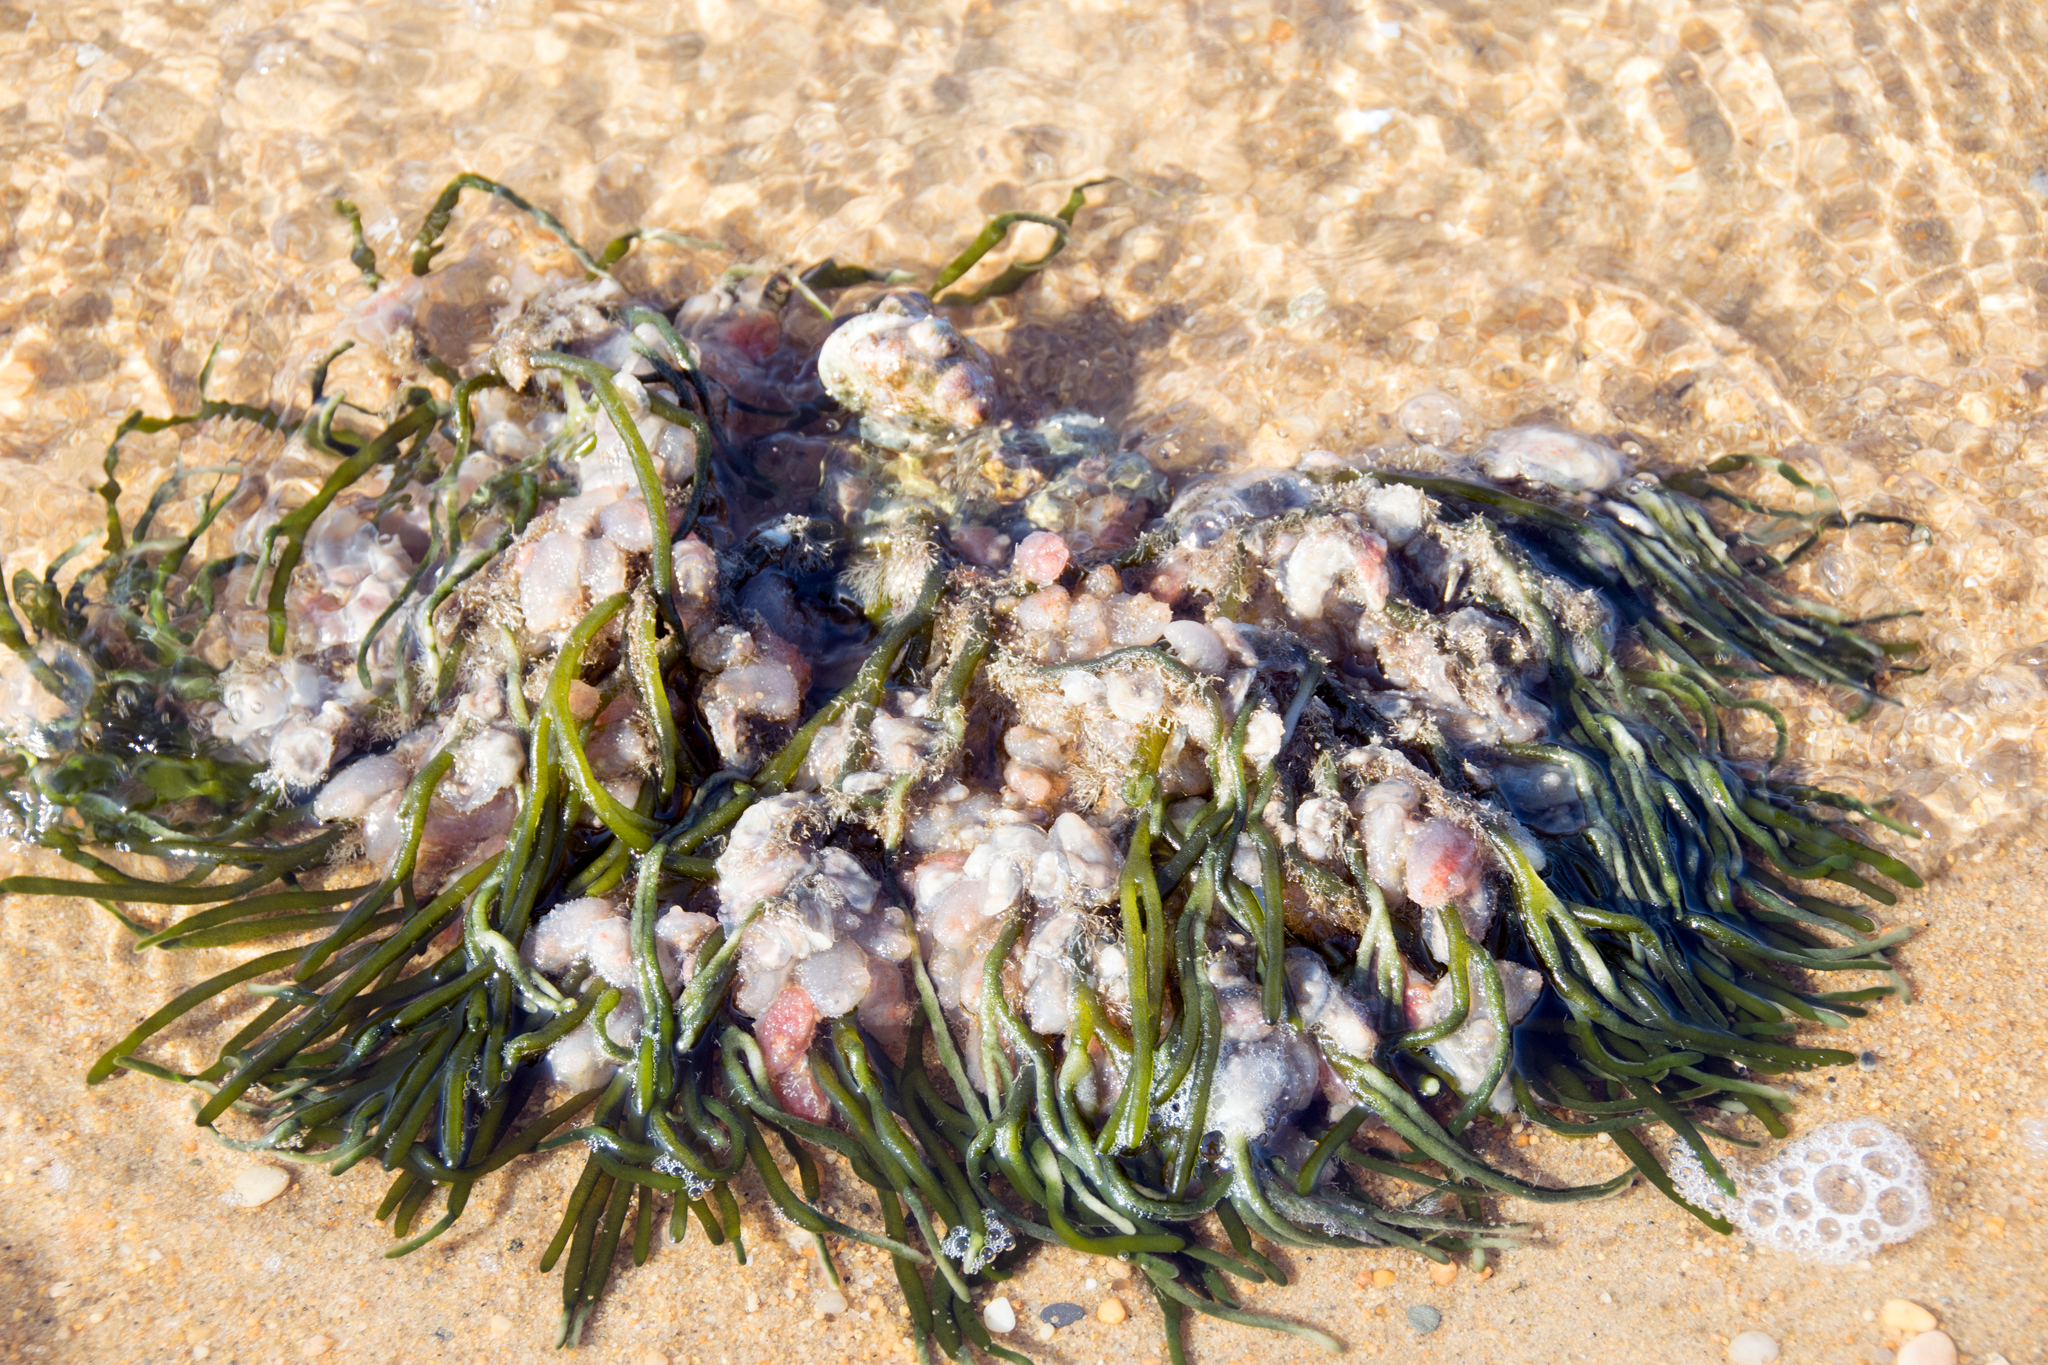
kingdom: Plantae
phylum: Chlorophyta
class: Ulvophyceae
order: Bryopsidales
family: Codiaceae
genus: Codium
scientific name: Codium fragile
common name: Dead man's fingers
